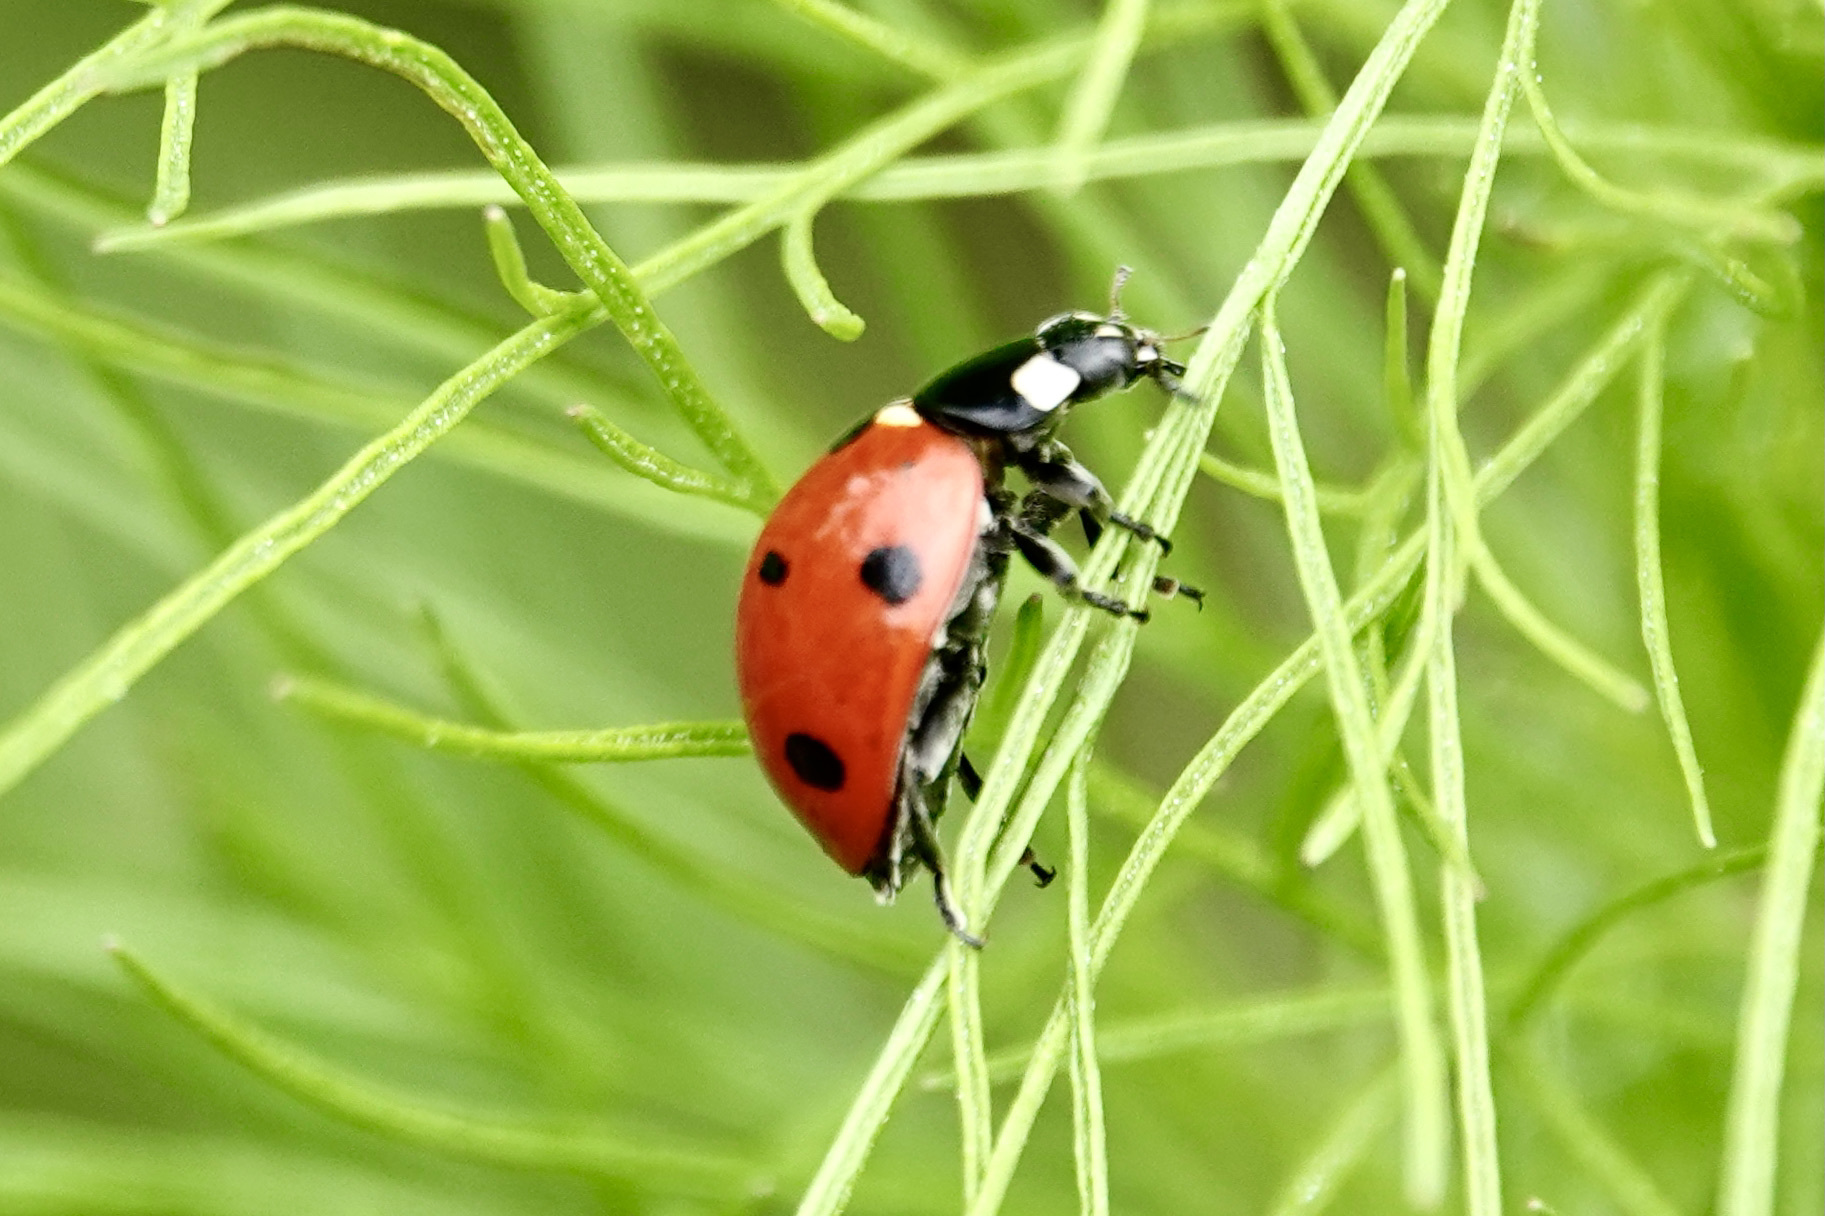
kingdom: Animalia
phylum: Arthropoda
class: Insecta
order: Coleoptera
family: Coccinellidae
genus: Coccinella
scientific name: Coccinella septempunctata
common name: Sevenspotted lady beetle
